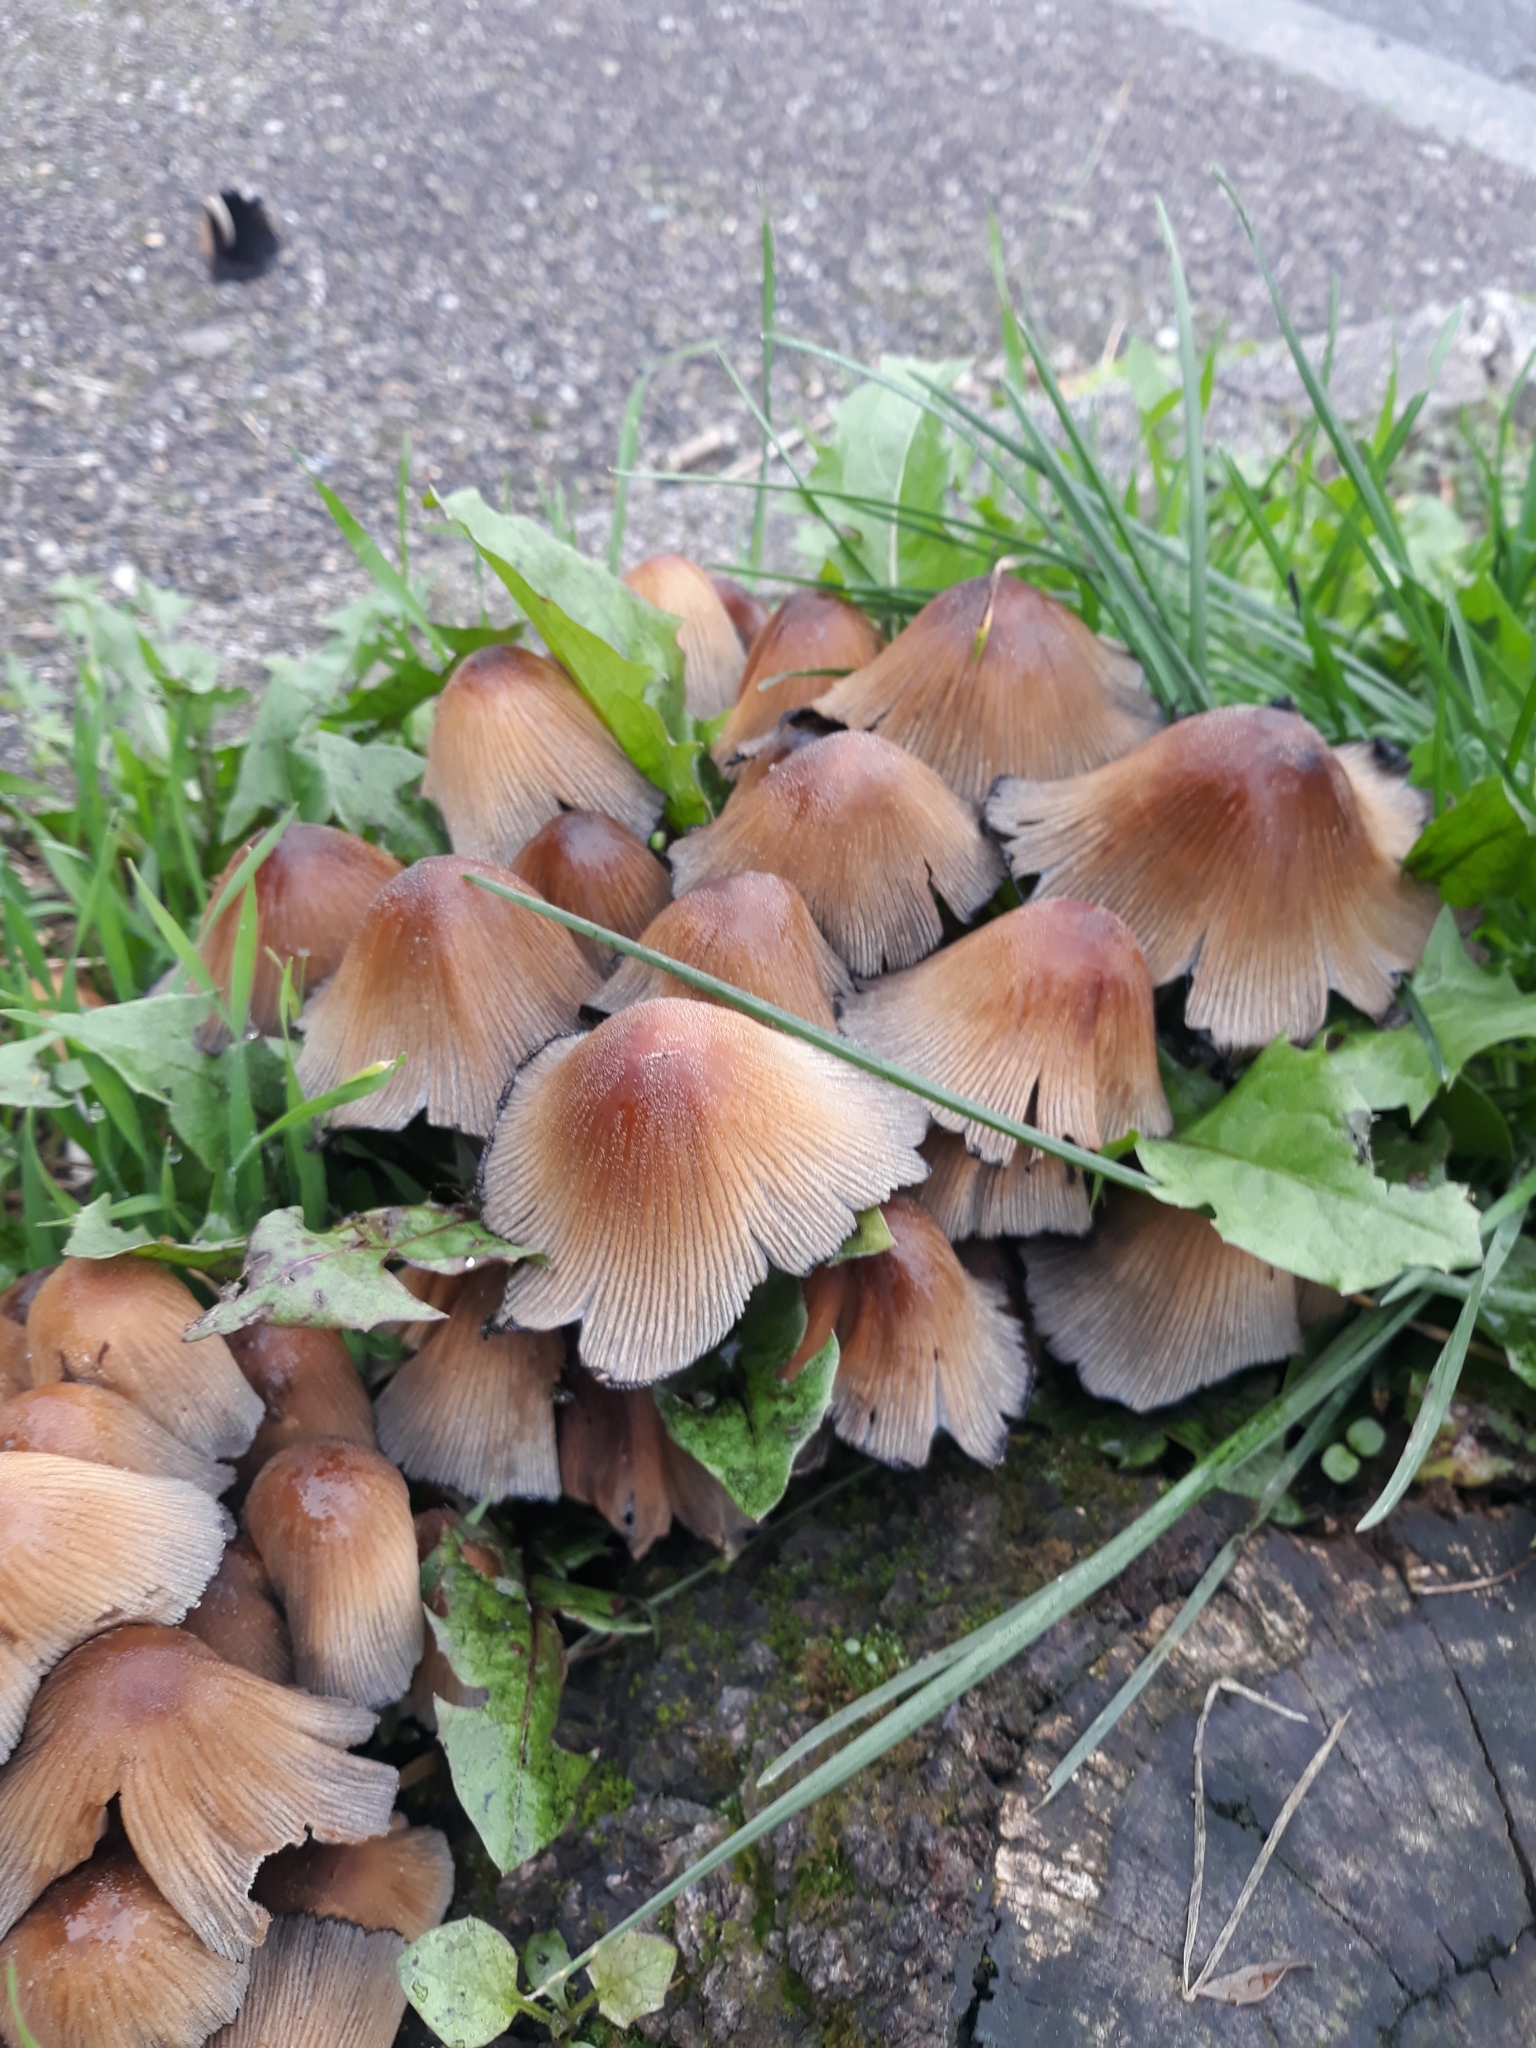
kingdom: Fungi
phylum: Basidiomycota
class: Agaricomycetes
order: Agaricales
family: Psathyrellaceae
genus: Coprinellus
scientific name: Coprinellus micaceus
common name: Glistening ink-cap
